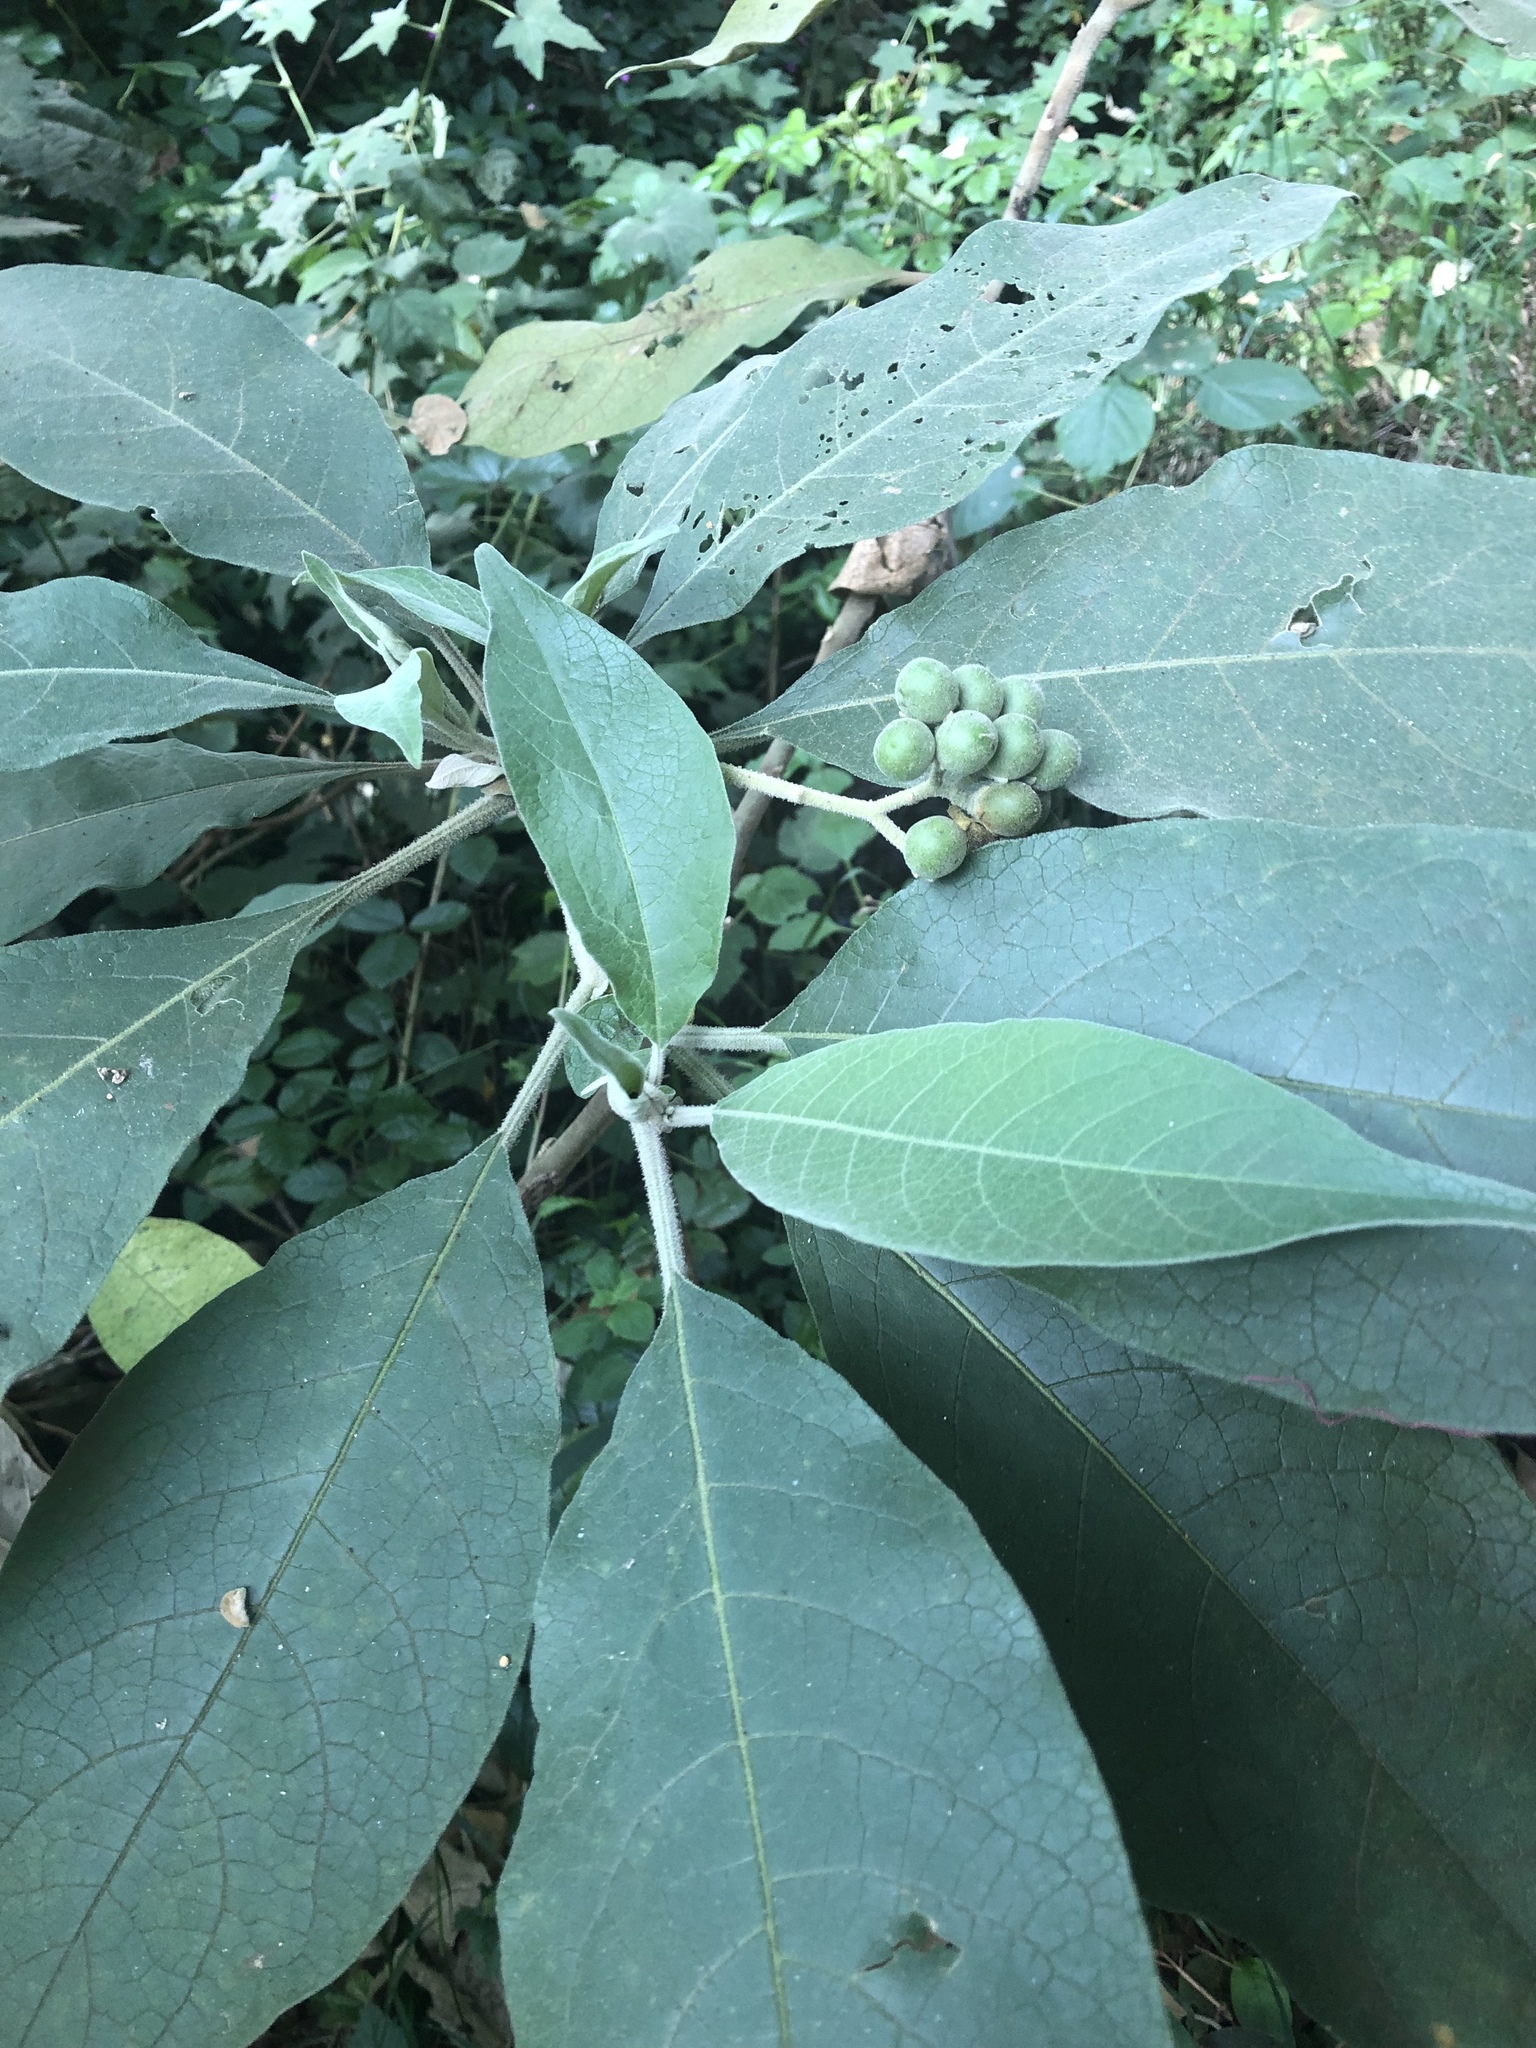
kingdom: Plantae
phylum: Tracheophyta
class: Magnoliopsida
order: Solanales
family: Solanaceae
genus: Solanum
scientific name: Solanum mauritianum
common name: Earleaf nightshade
